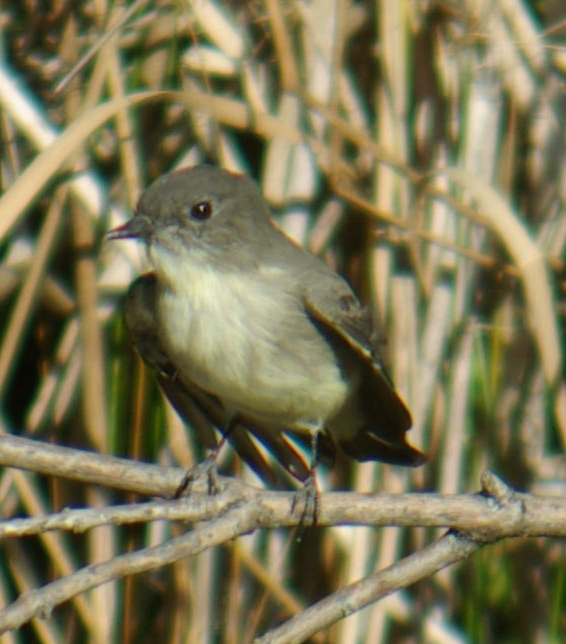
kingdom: Animalia
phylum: Chordata
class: Aves
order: Passeriformes
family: Tyrannidae
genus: Sayornis
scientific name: Sayornis phoebe
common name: Eastern phoebe
